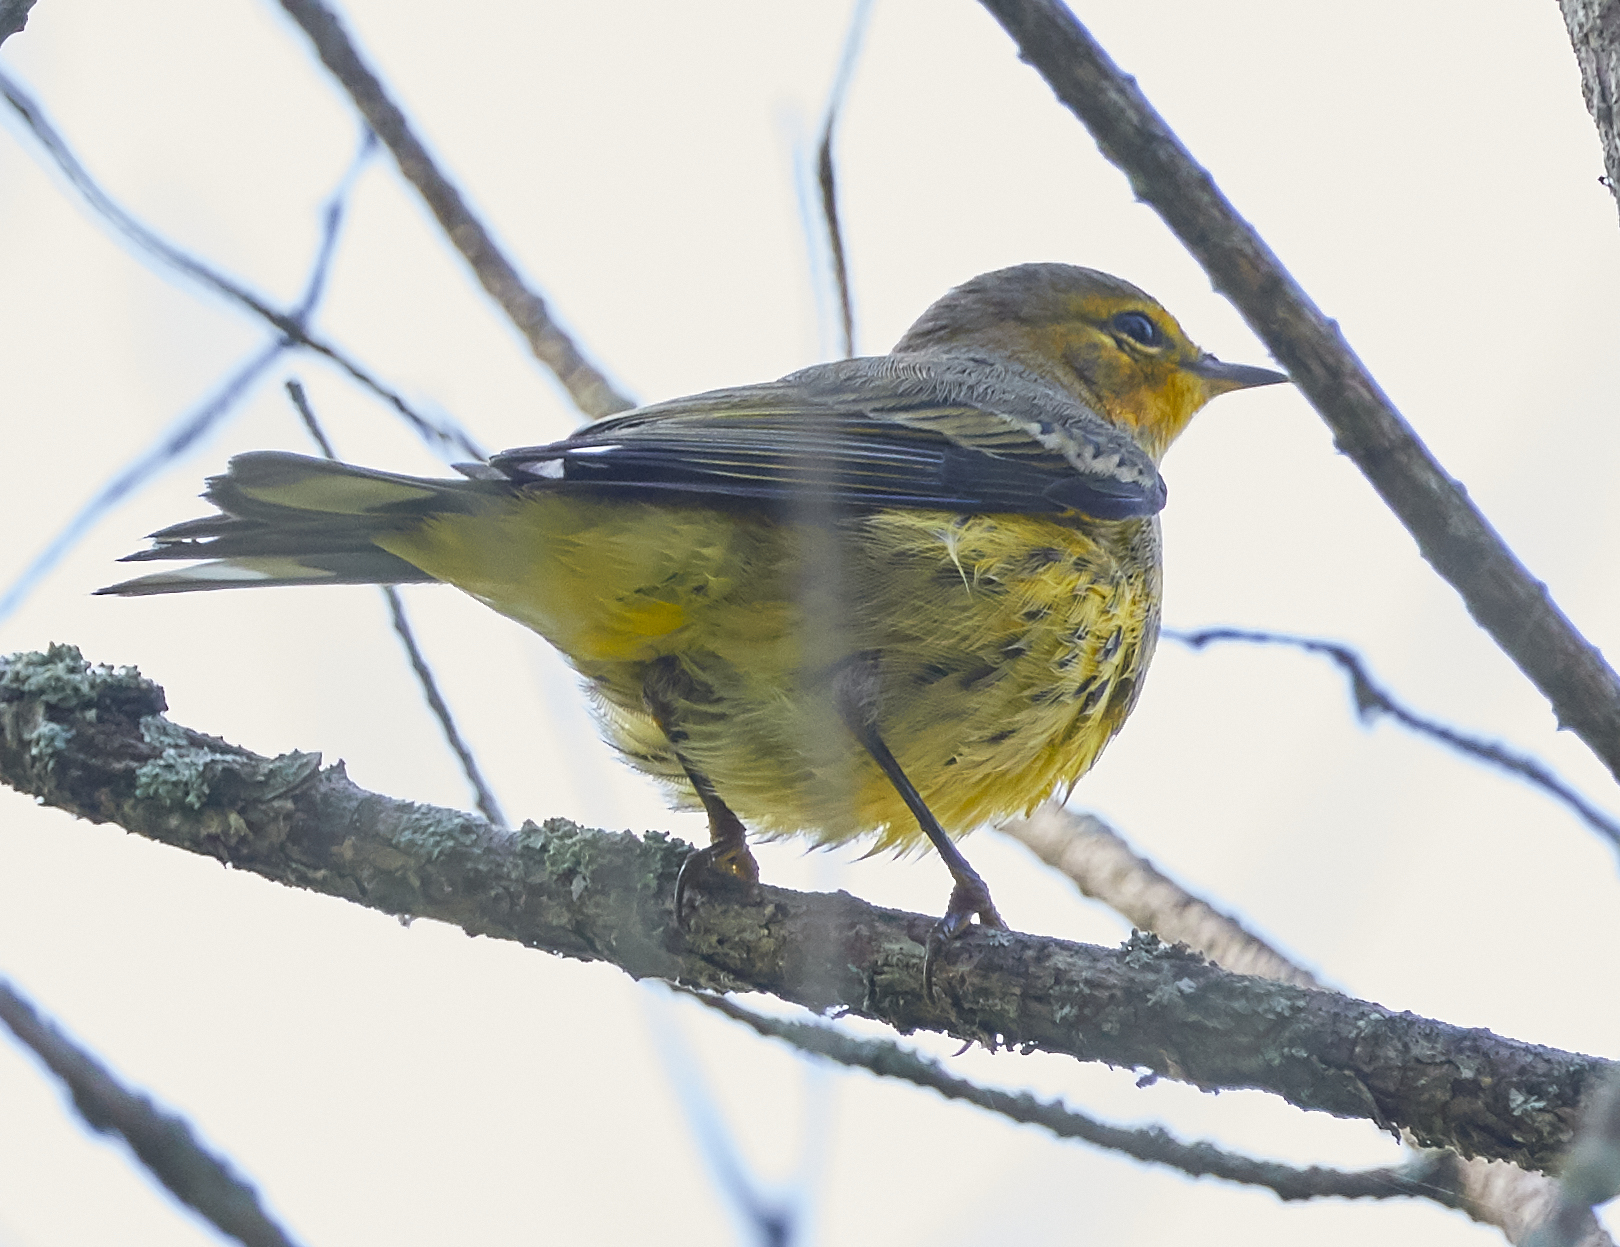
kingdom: Animalia
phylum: Chordata
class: Aves
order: Passeriformes
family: Parulidae
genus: Setophaga
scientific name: Setophaga tigrina
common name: Cape may warbler
